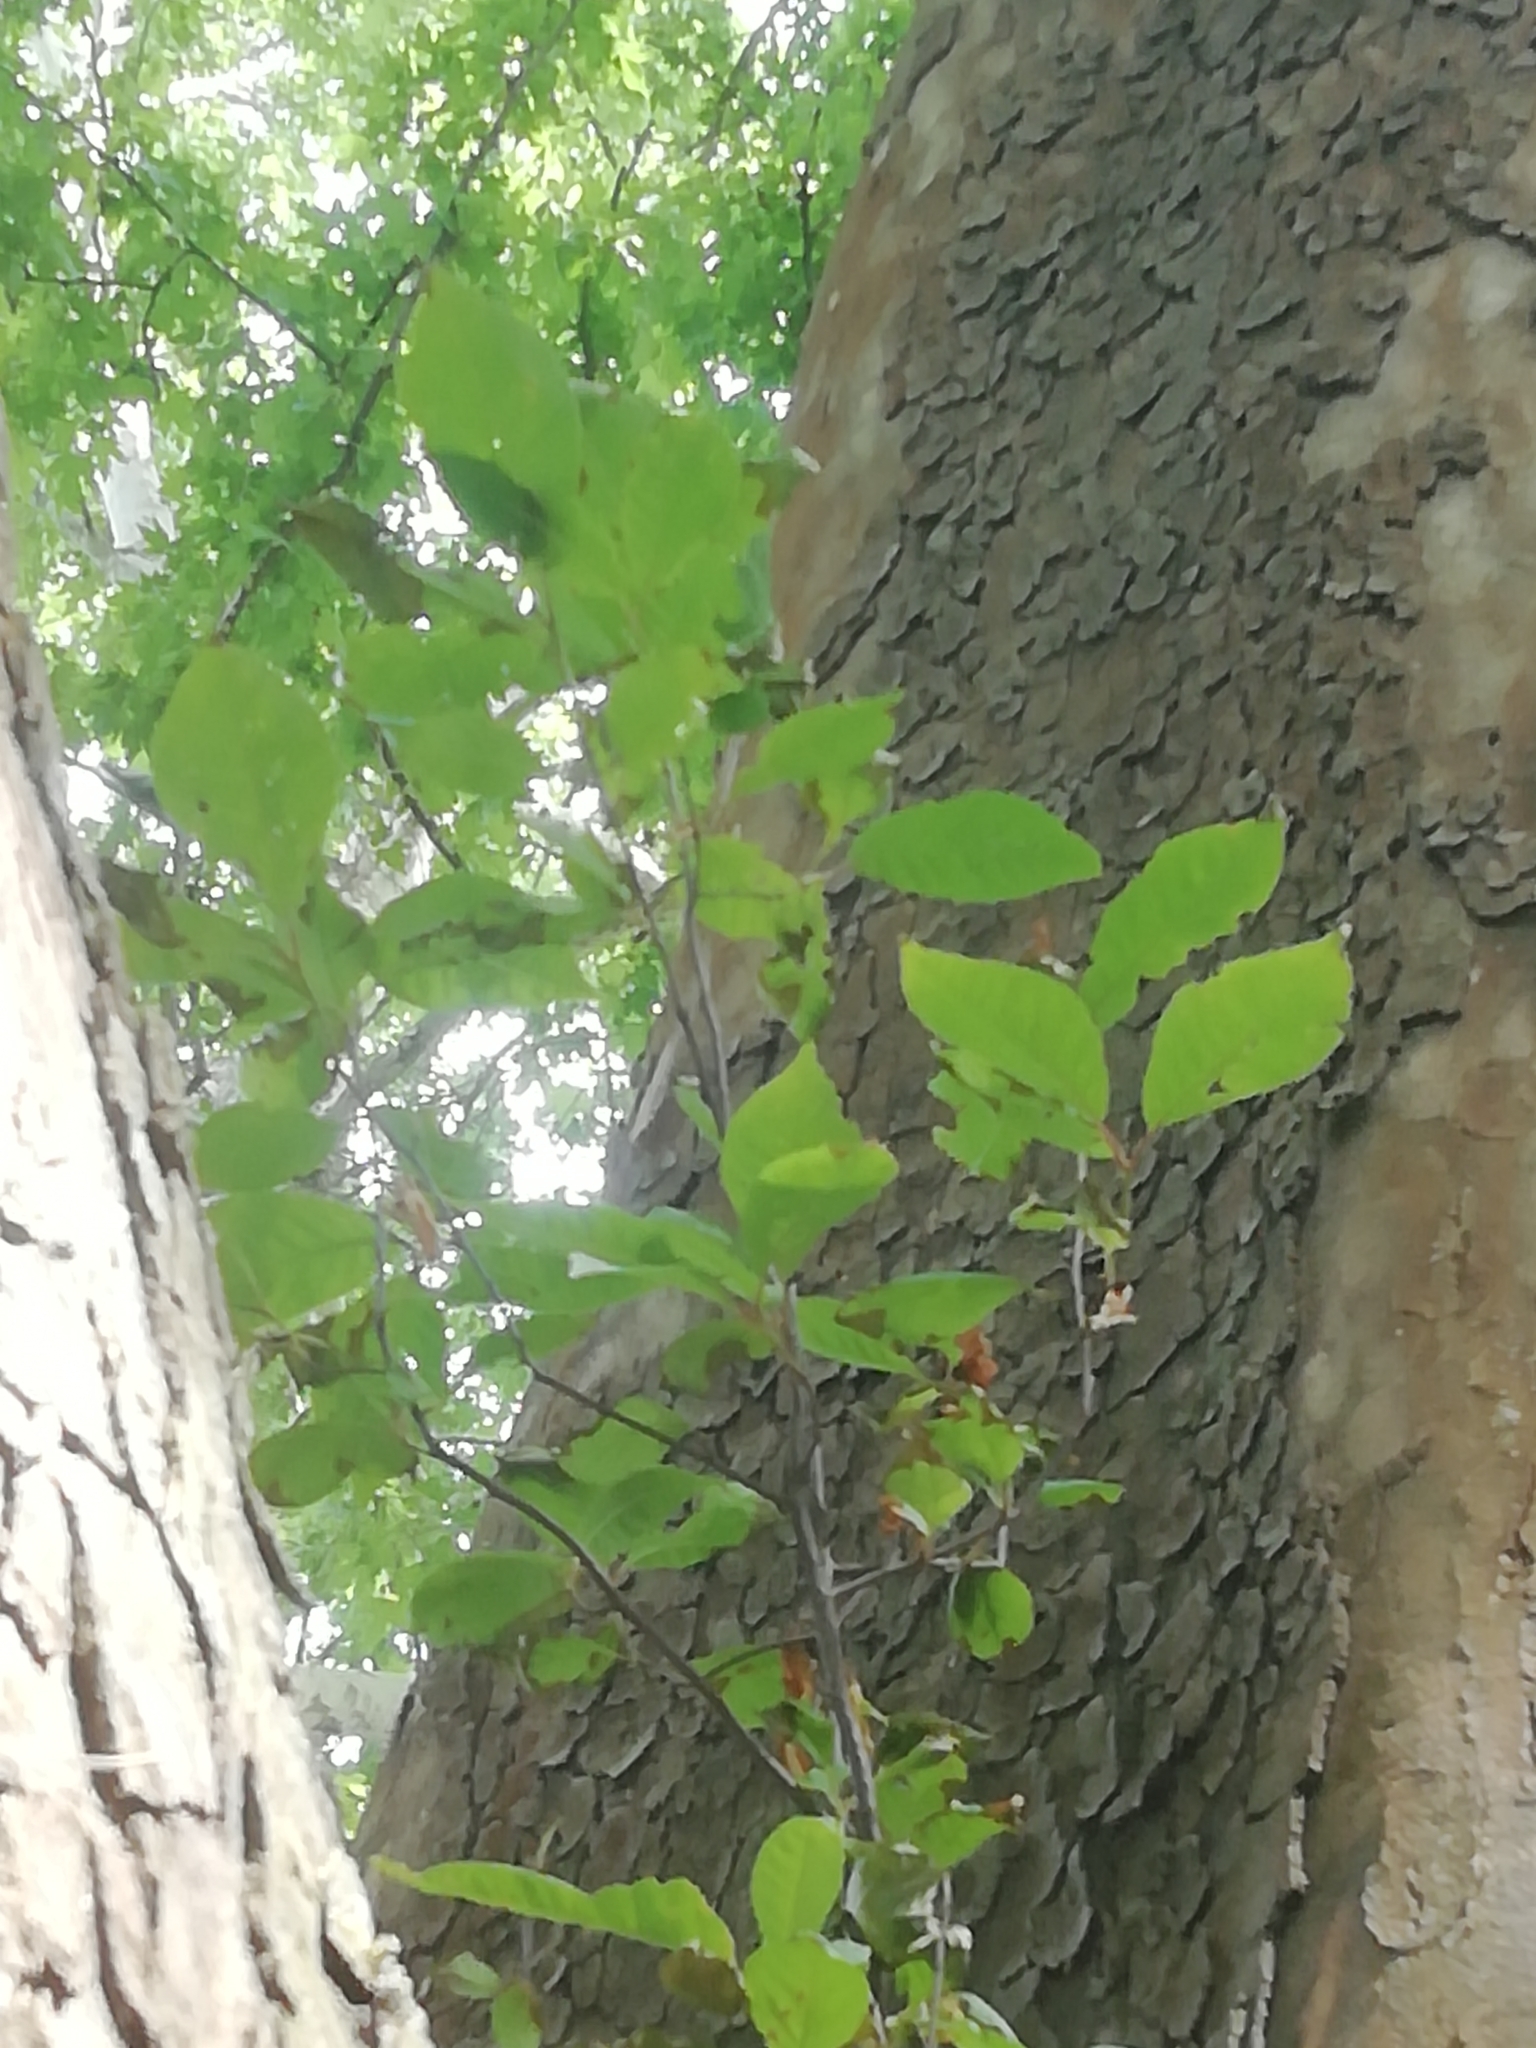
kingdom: Plantae
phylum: Tracheophyta
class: Magnoliopsida
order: Fagales
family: Fagaceae
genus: Fagus
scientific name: Fagus taurica
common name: Crimean beech
